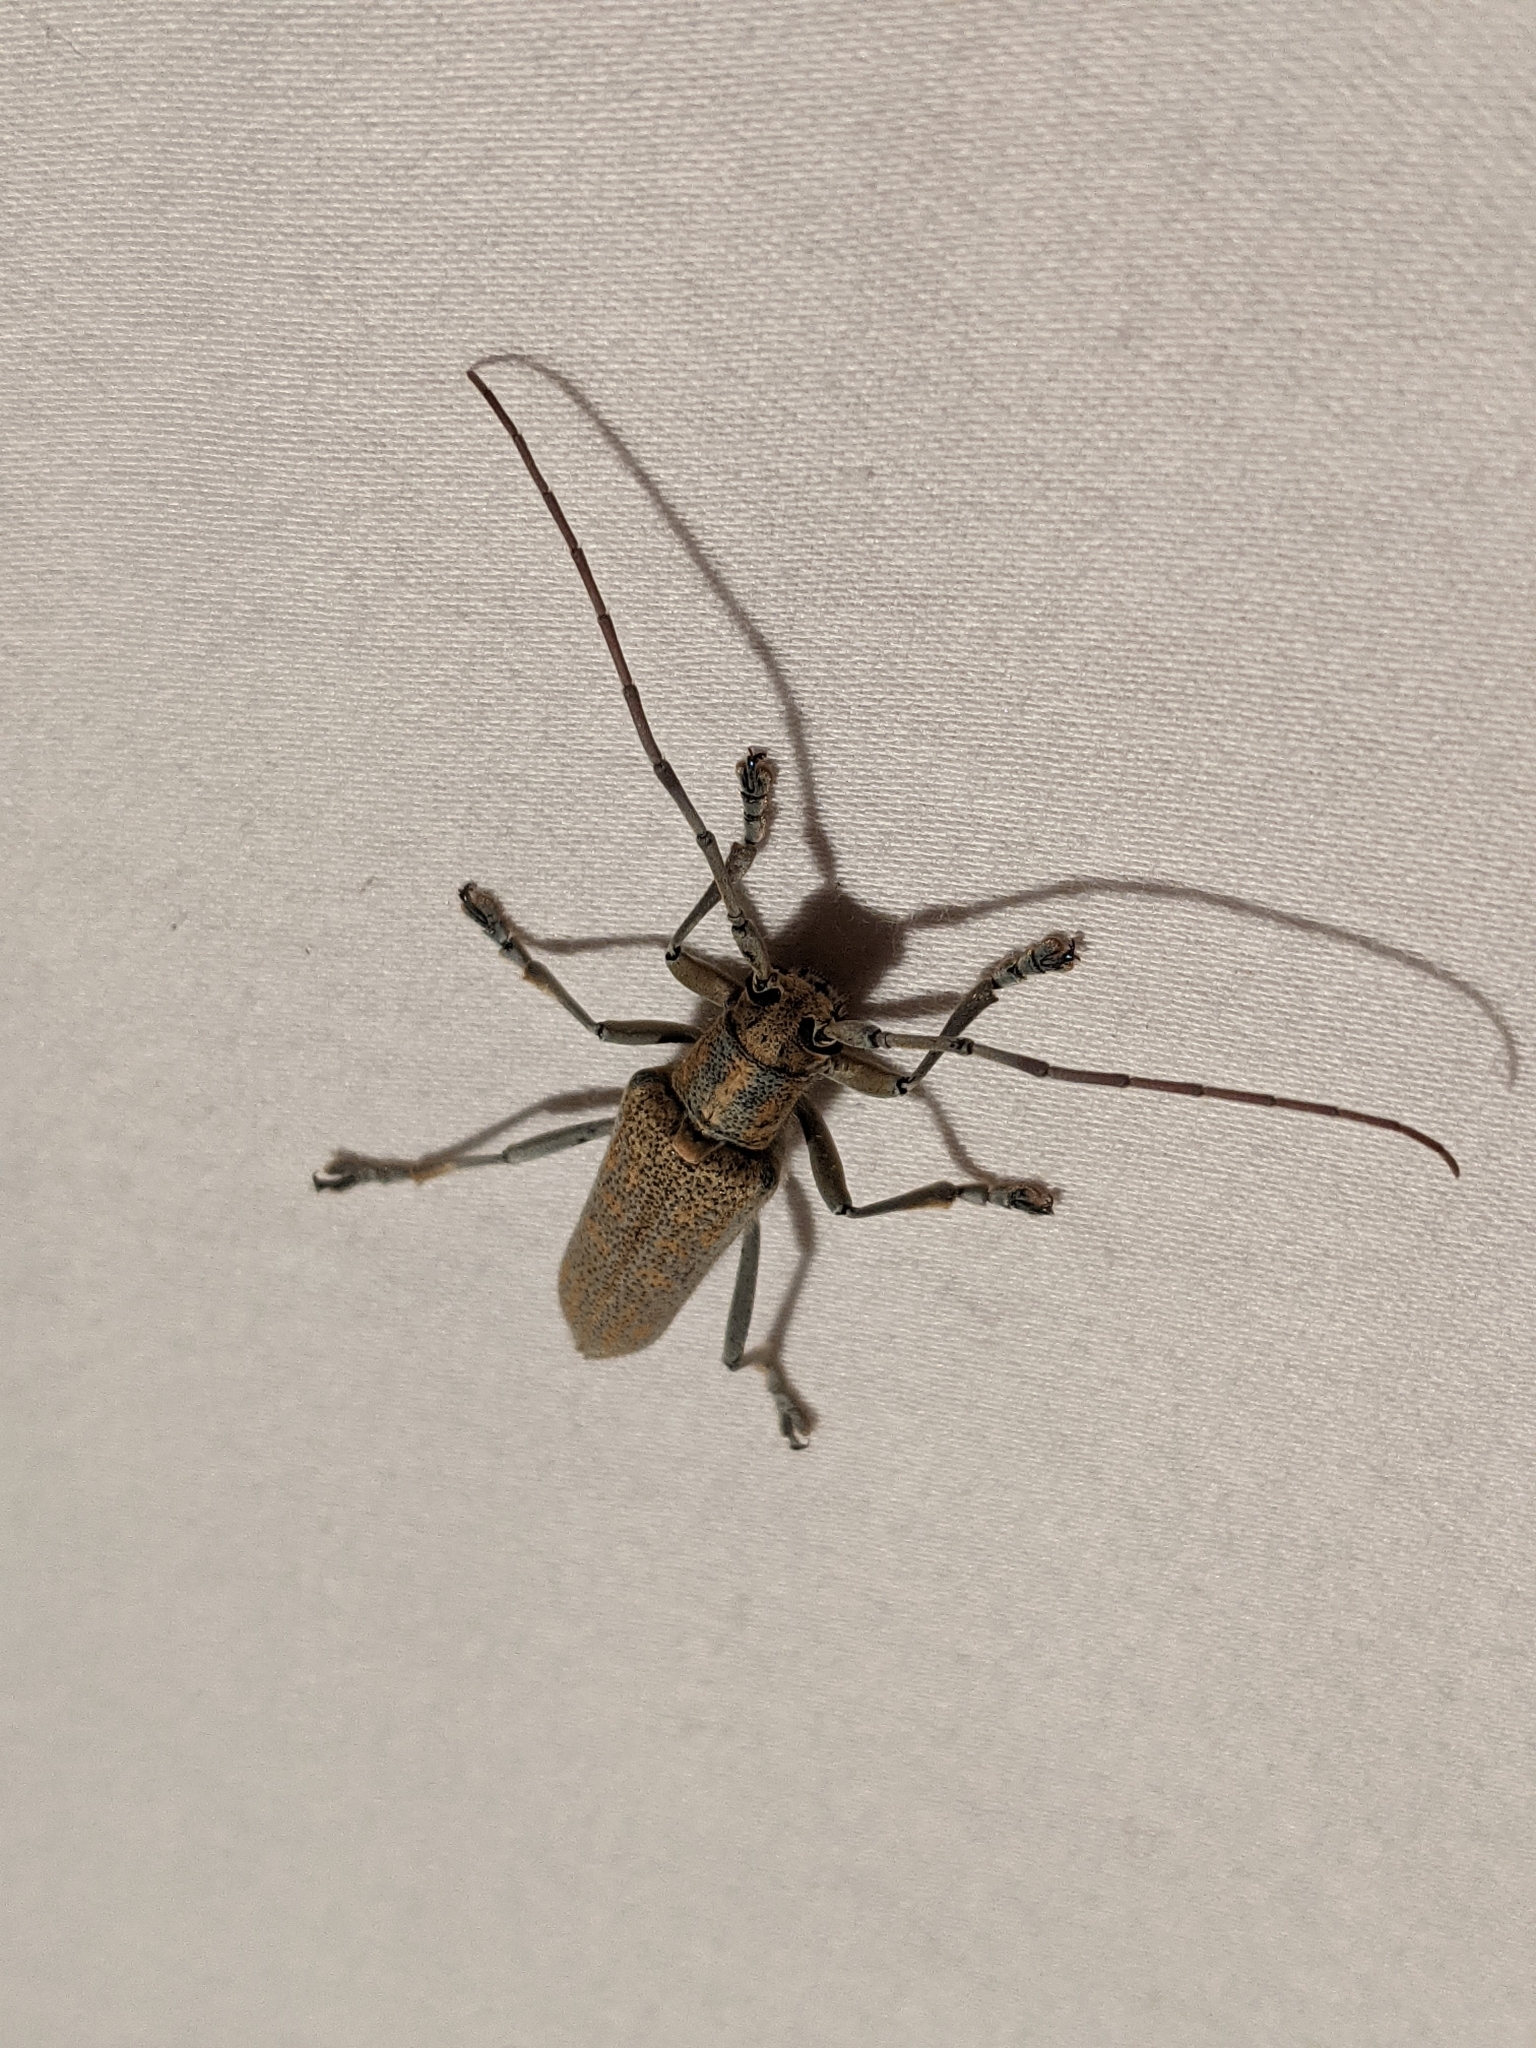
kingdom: Animalia
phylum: Arthropoda
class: Insecta
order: Coleoptera
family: Cerambycidae
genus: Saperda
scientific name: Saperda calcarata
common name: Poplar borer
